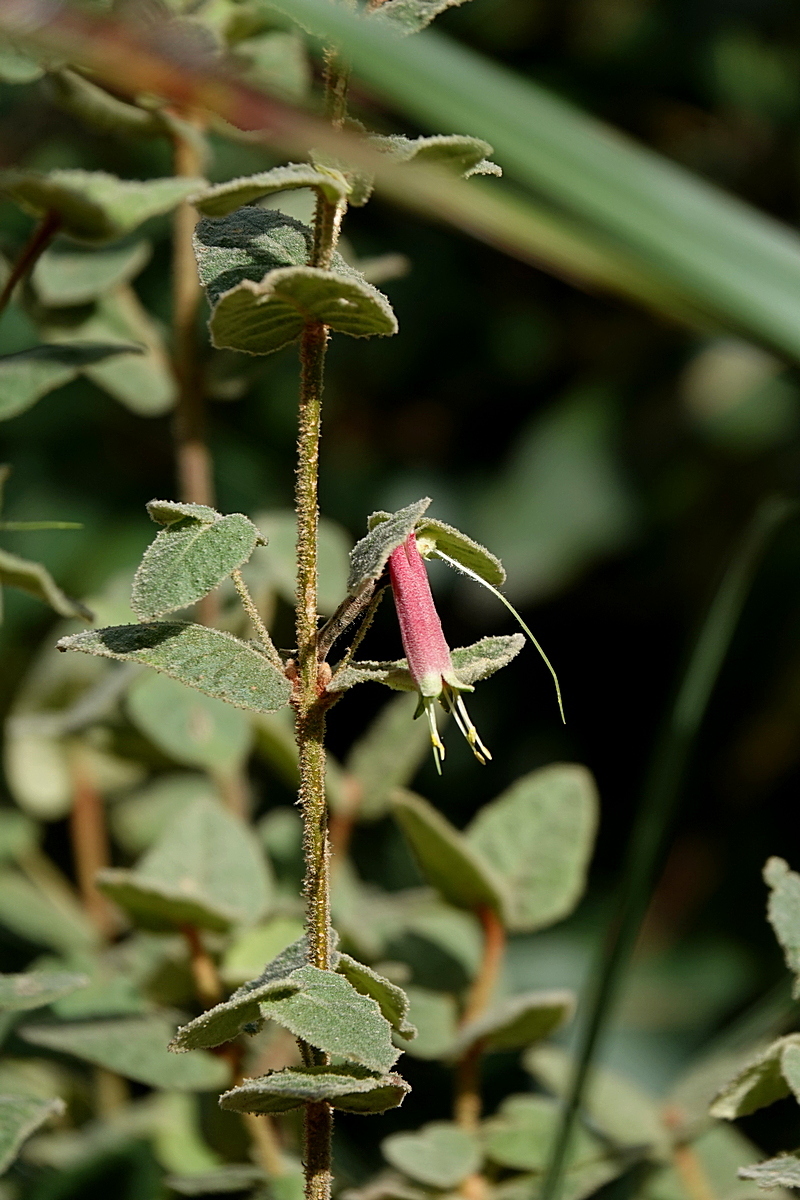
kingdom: Plantae
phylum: Tracheophyta
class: Magnoliopsida
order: Sapindales
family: Rutaceae
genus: Correa
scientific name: Correa reflexa
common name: Common correa
